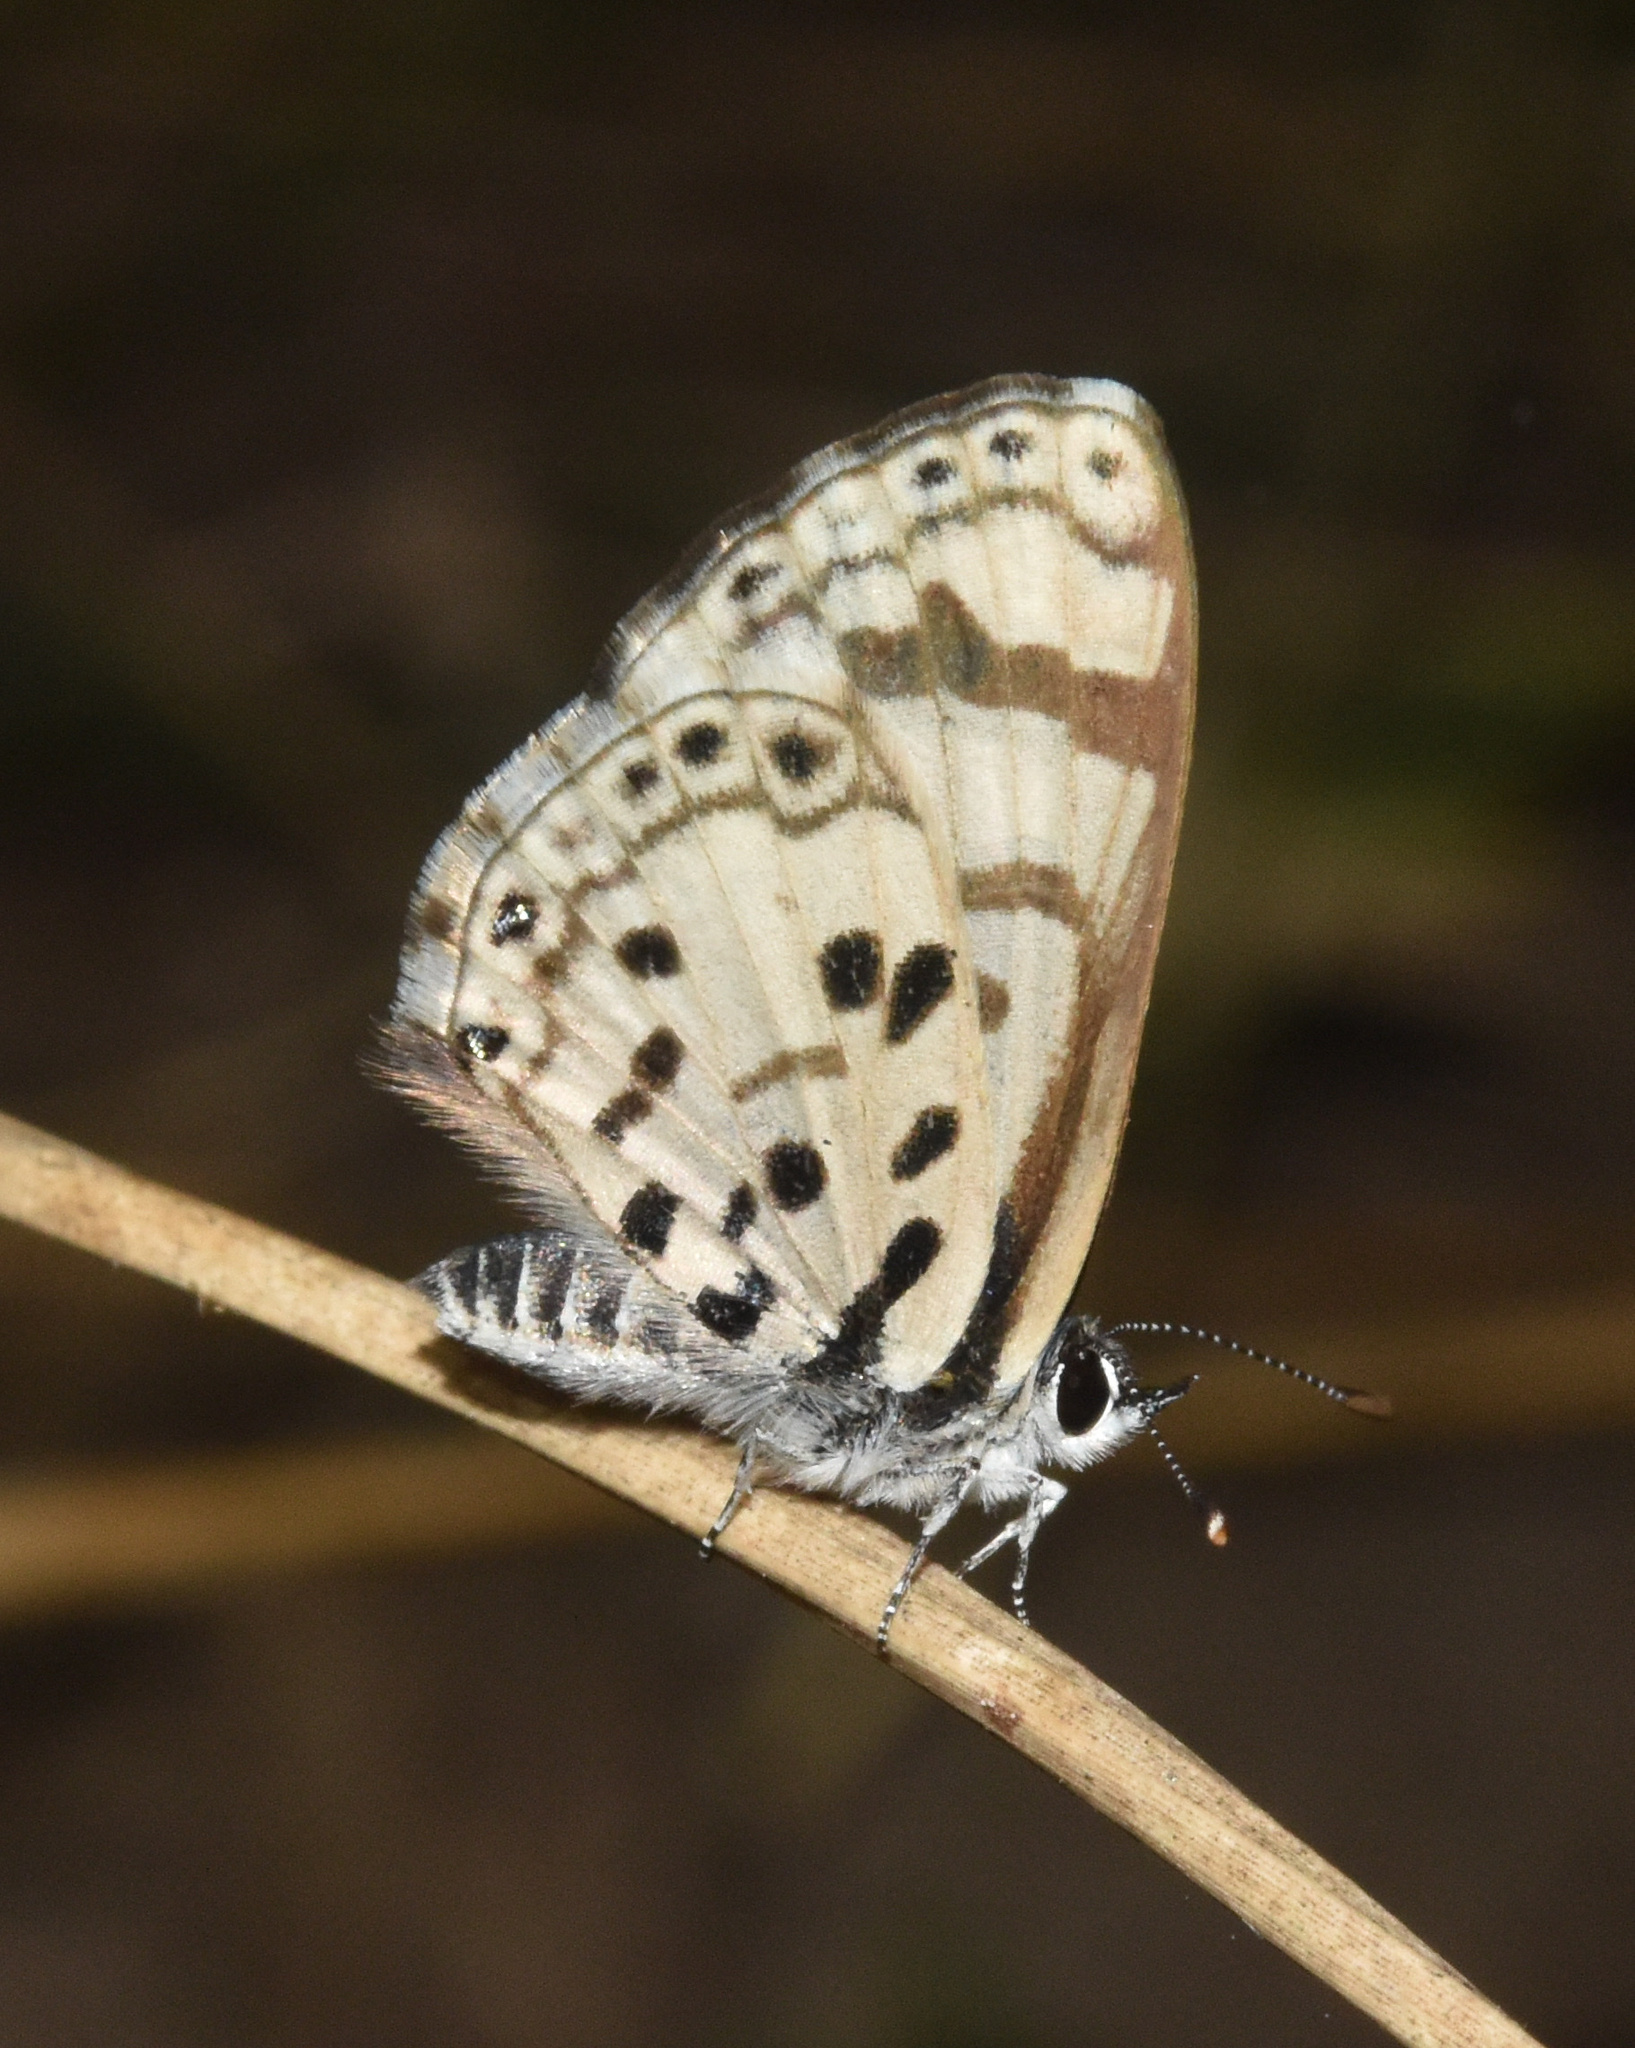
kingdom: Animalia
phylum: Arthropoda
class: Insecta
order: Lepidoptera
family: Lycaenidae
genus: Azanus
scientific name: Azanus natalensis
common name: Natal babul blue
